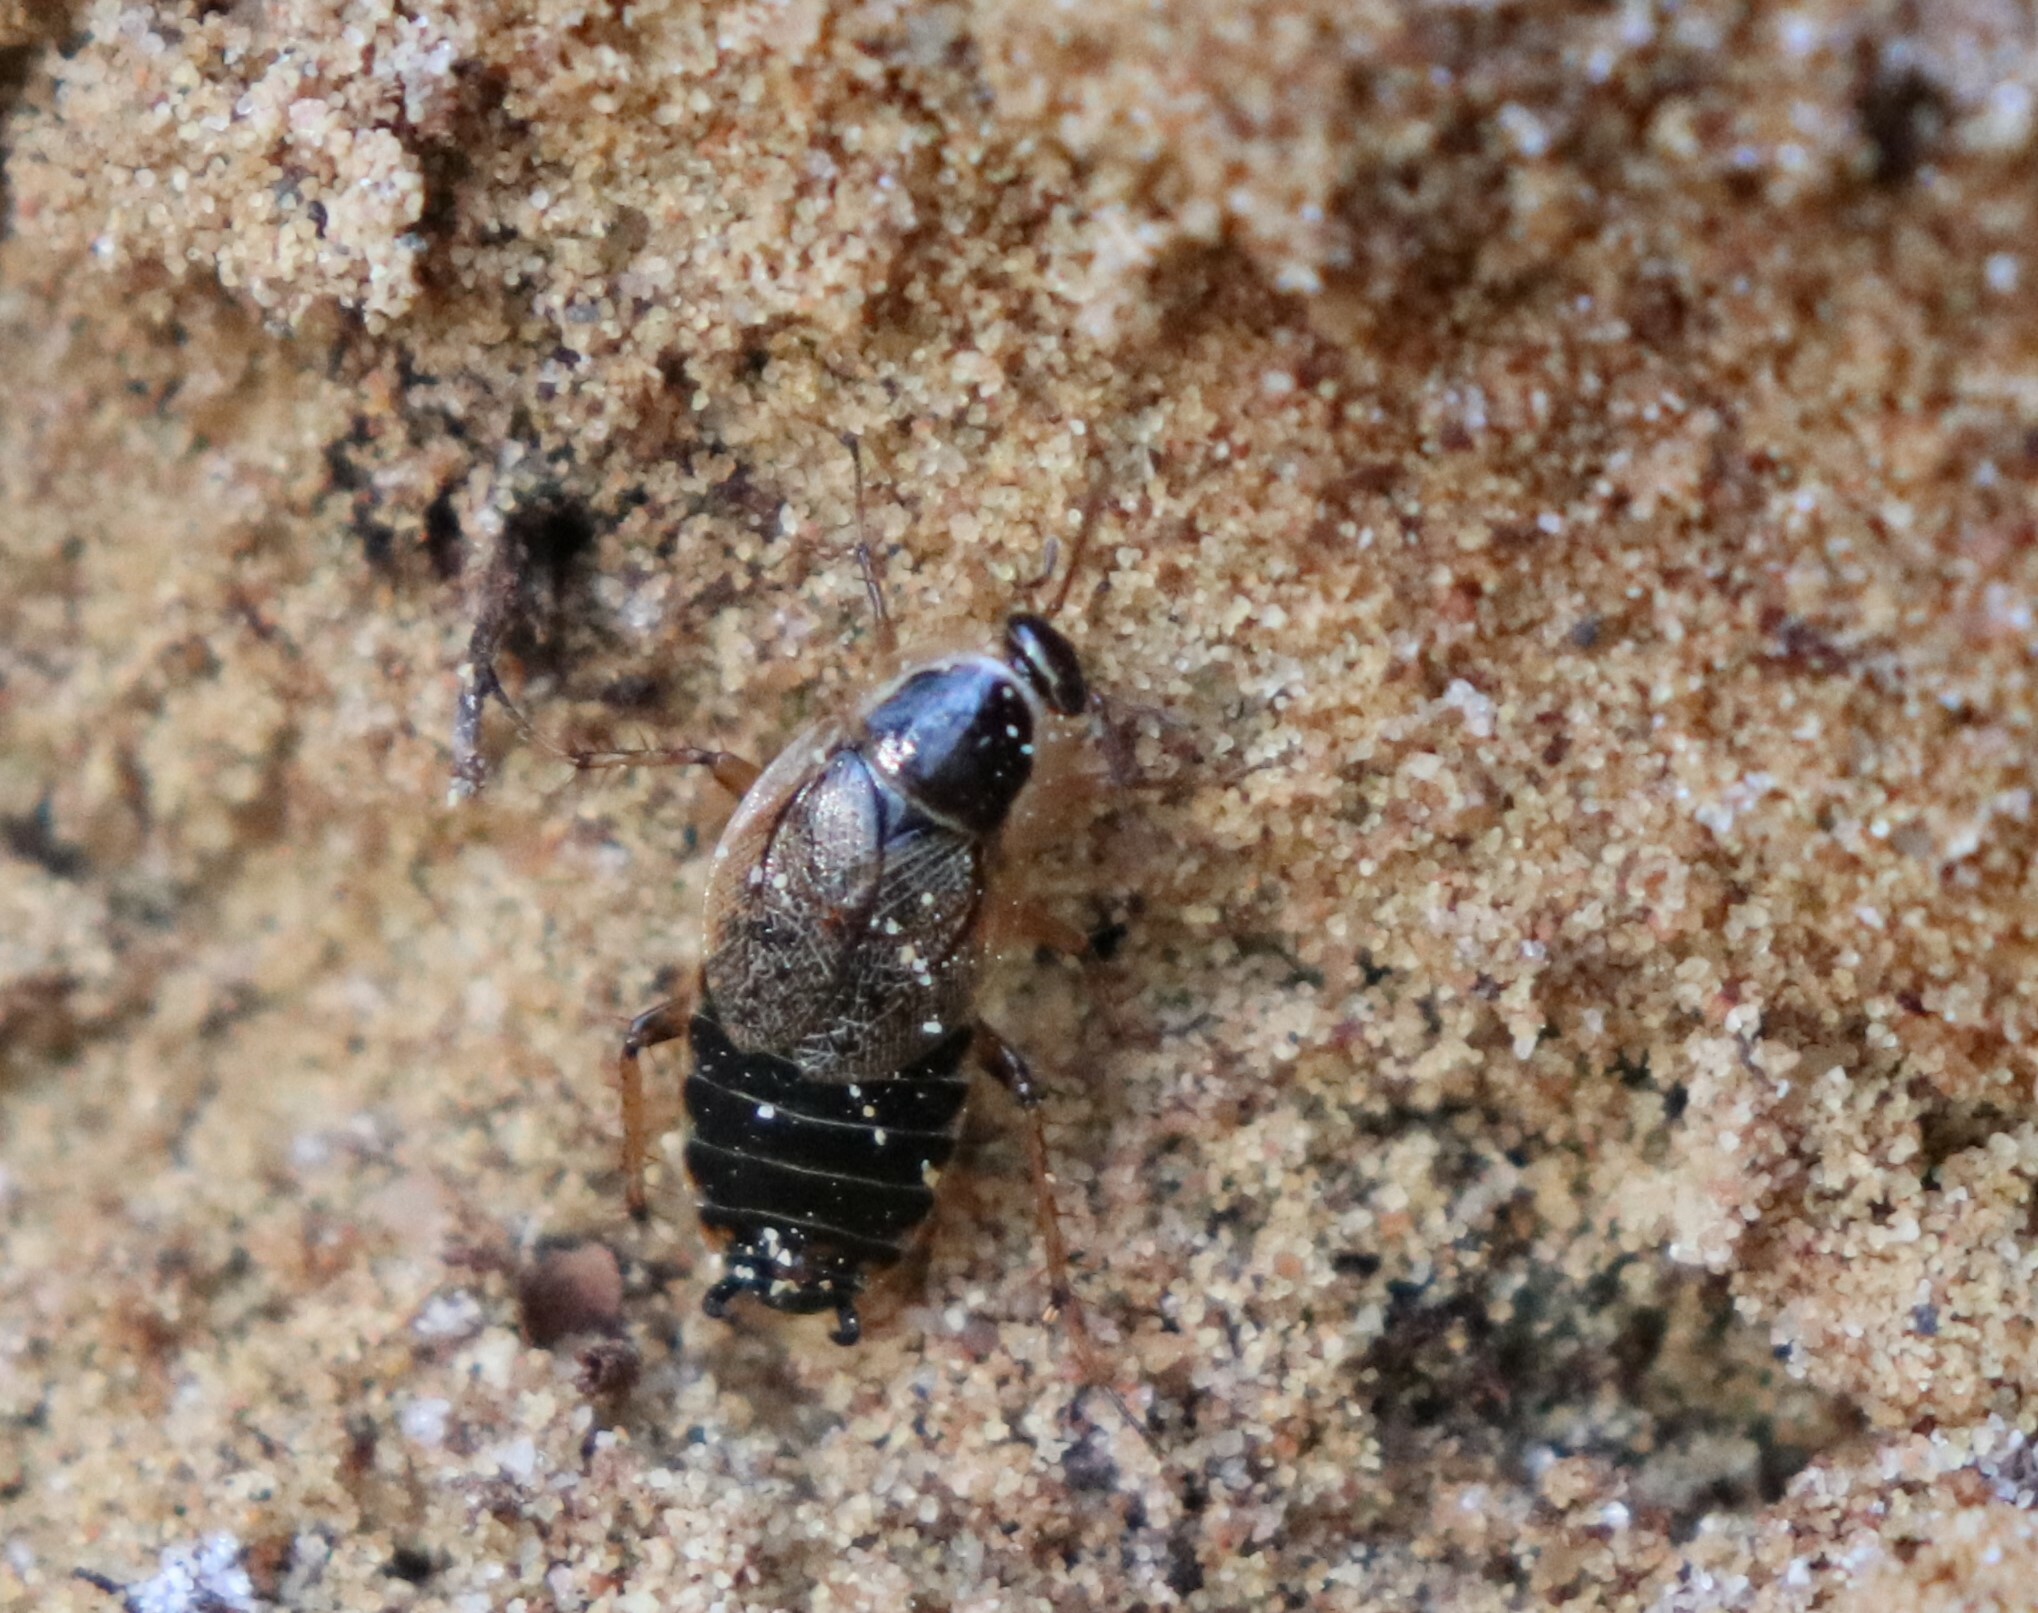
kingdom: Animalia
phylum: Arthropoda
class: Insecta
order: Blattodea
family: Ectobiidae
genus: Ectobius
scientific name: Ectobius sylvestris
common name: Forest cockroach
